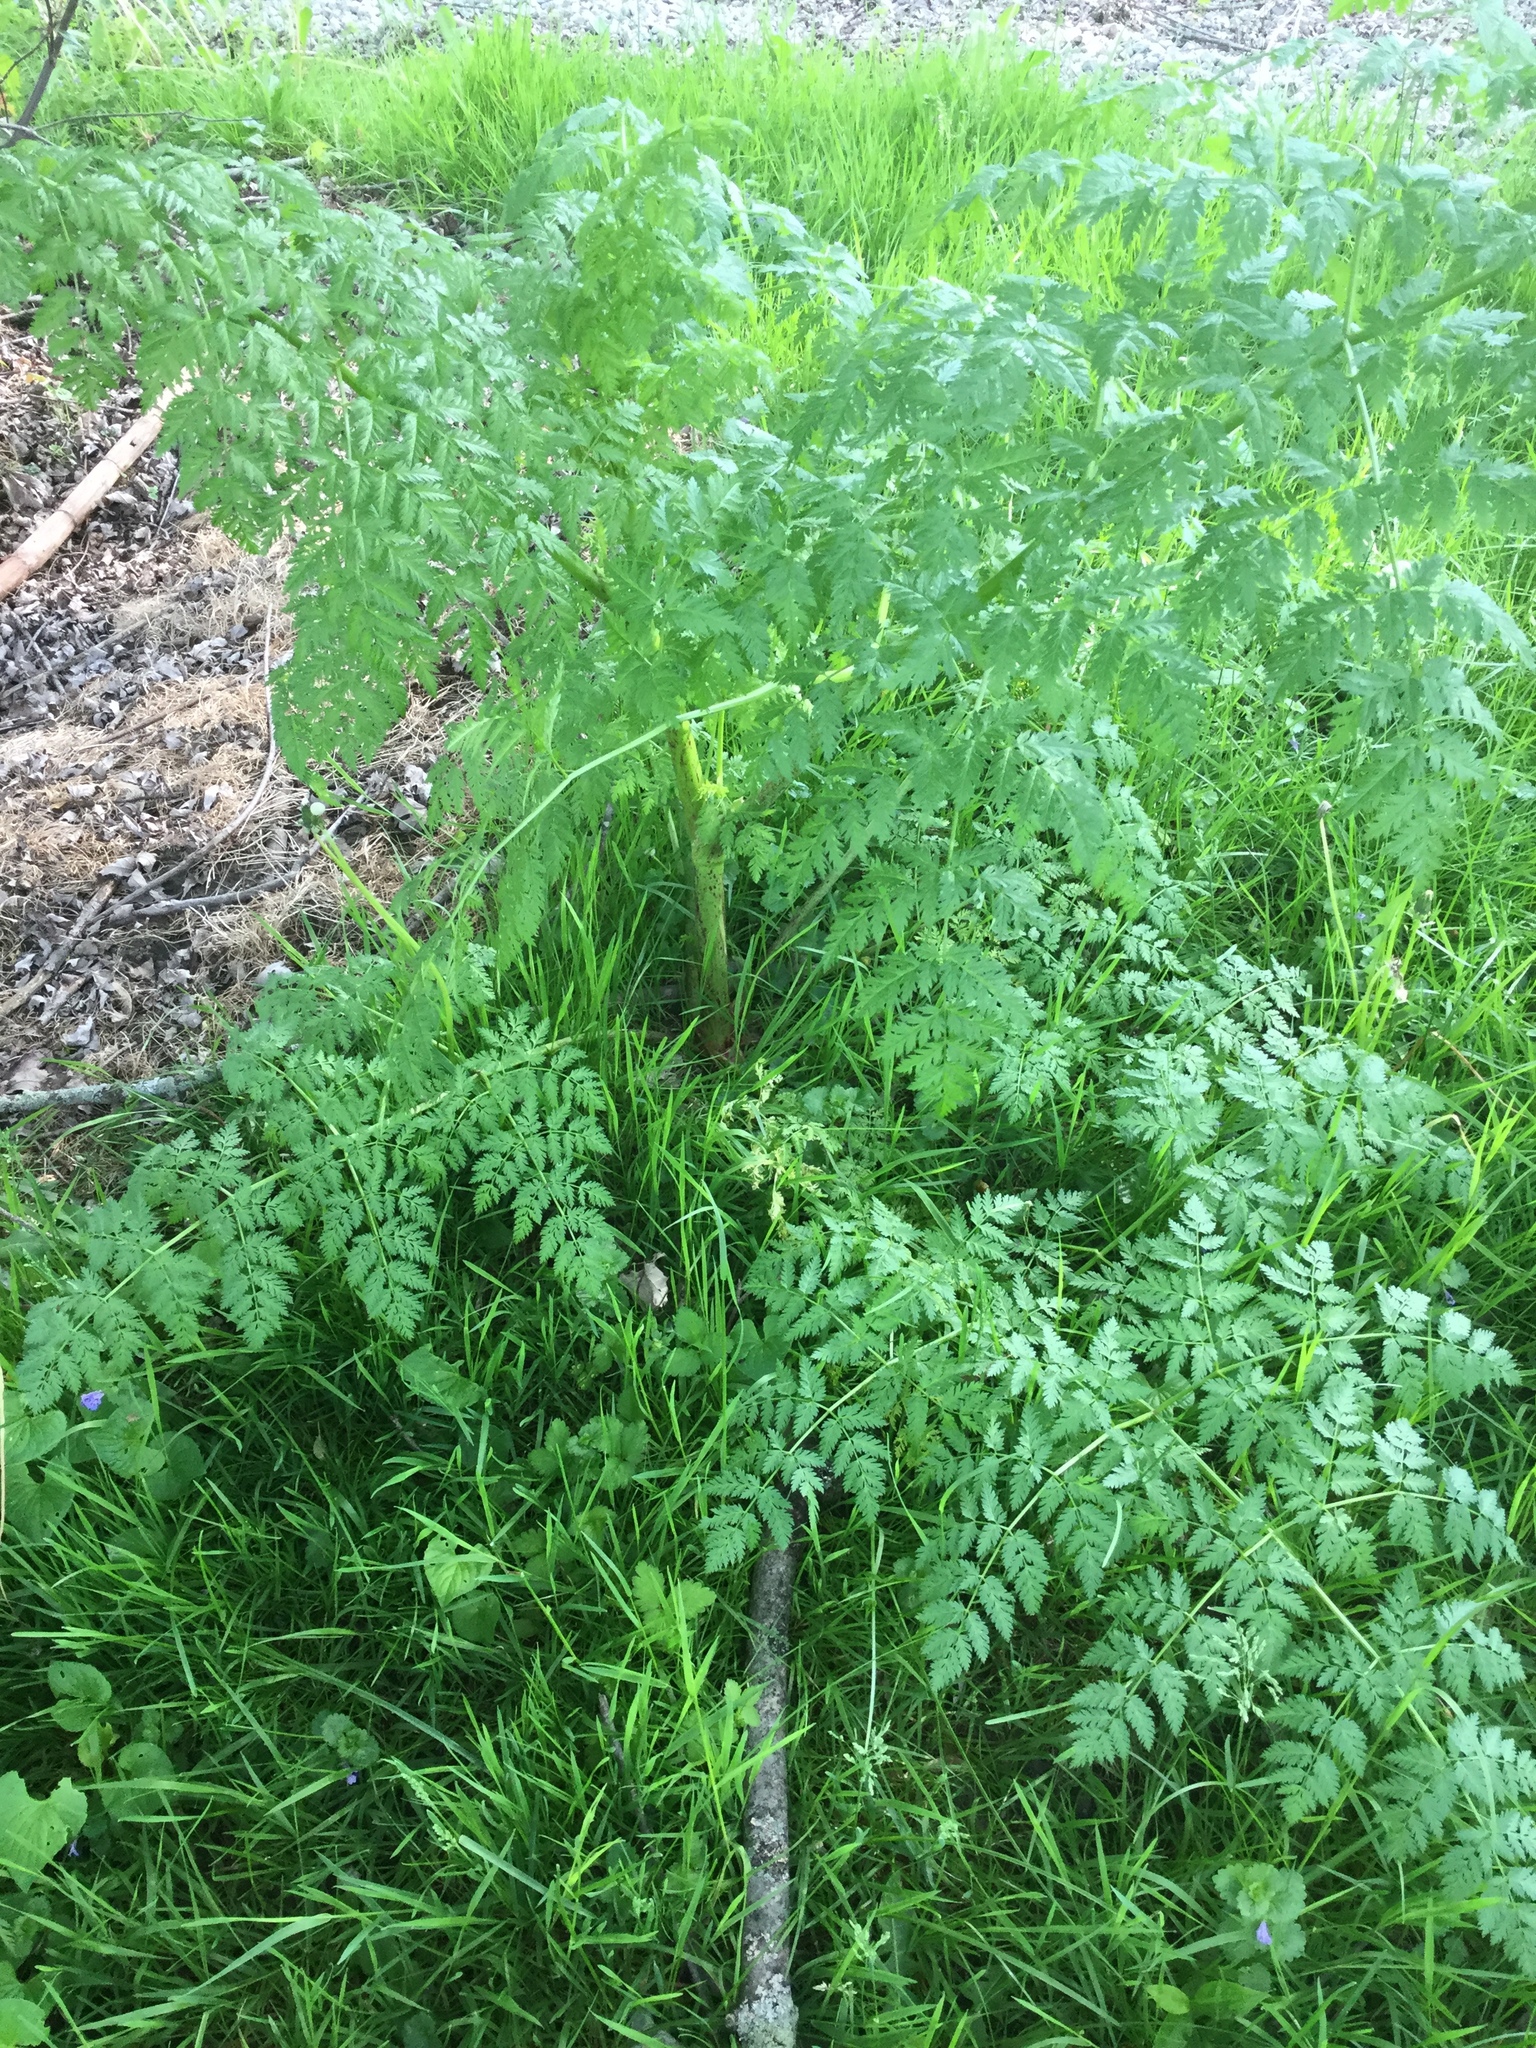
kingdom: Plantae
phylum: Tracheophyta
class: Magnoliopsida
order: Apiales
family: Apiaceae
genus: Conium
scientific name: Conium maculatum
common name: Hemlock
